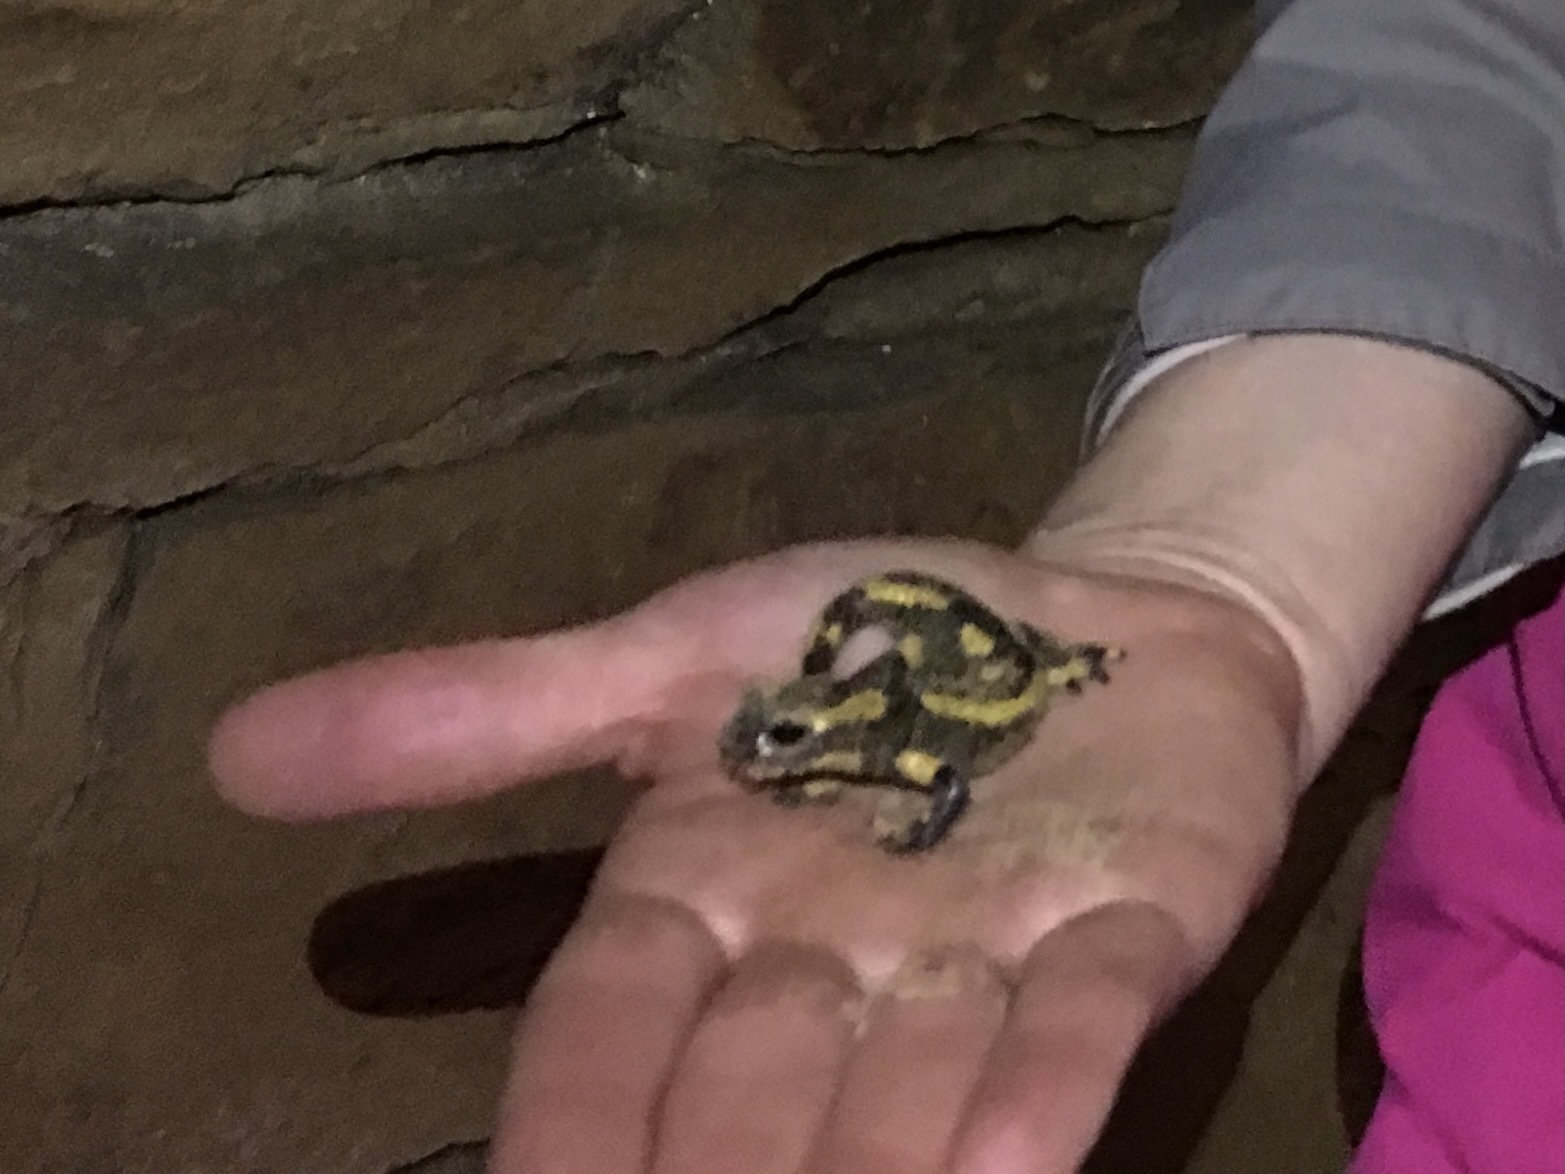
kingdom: Animalia
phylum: Chordata
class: Amphibia
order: Caudata
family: Salamandridae
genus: Salamandra
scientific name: Salamandra salamandra
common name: Fire salamander
